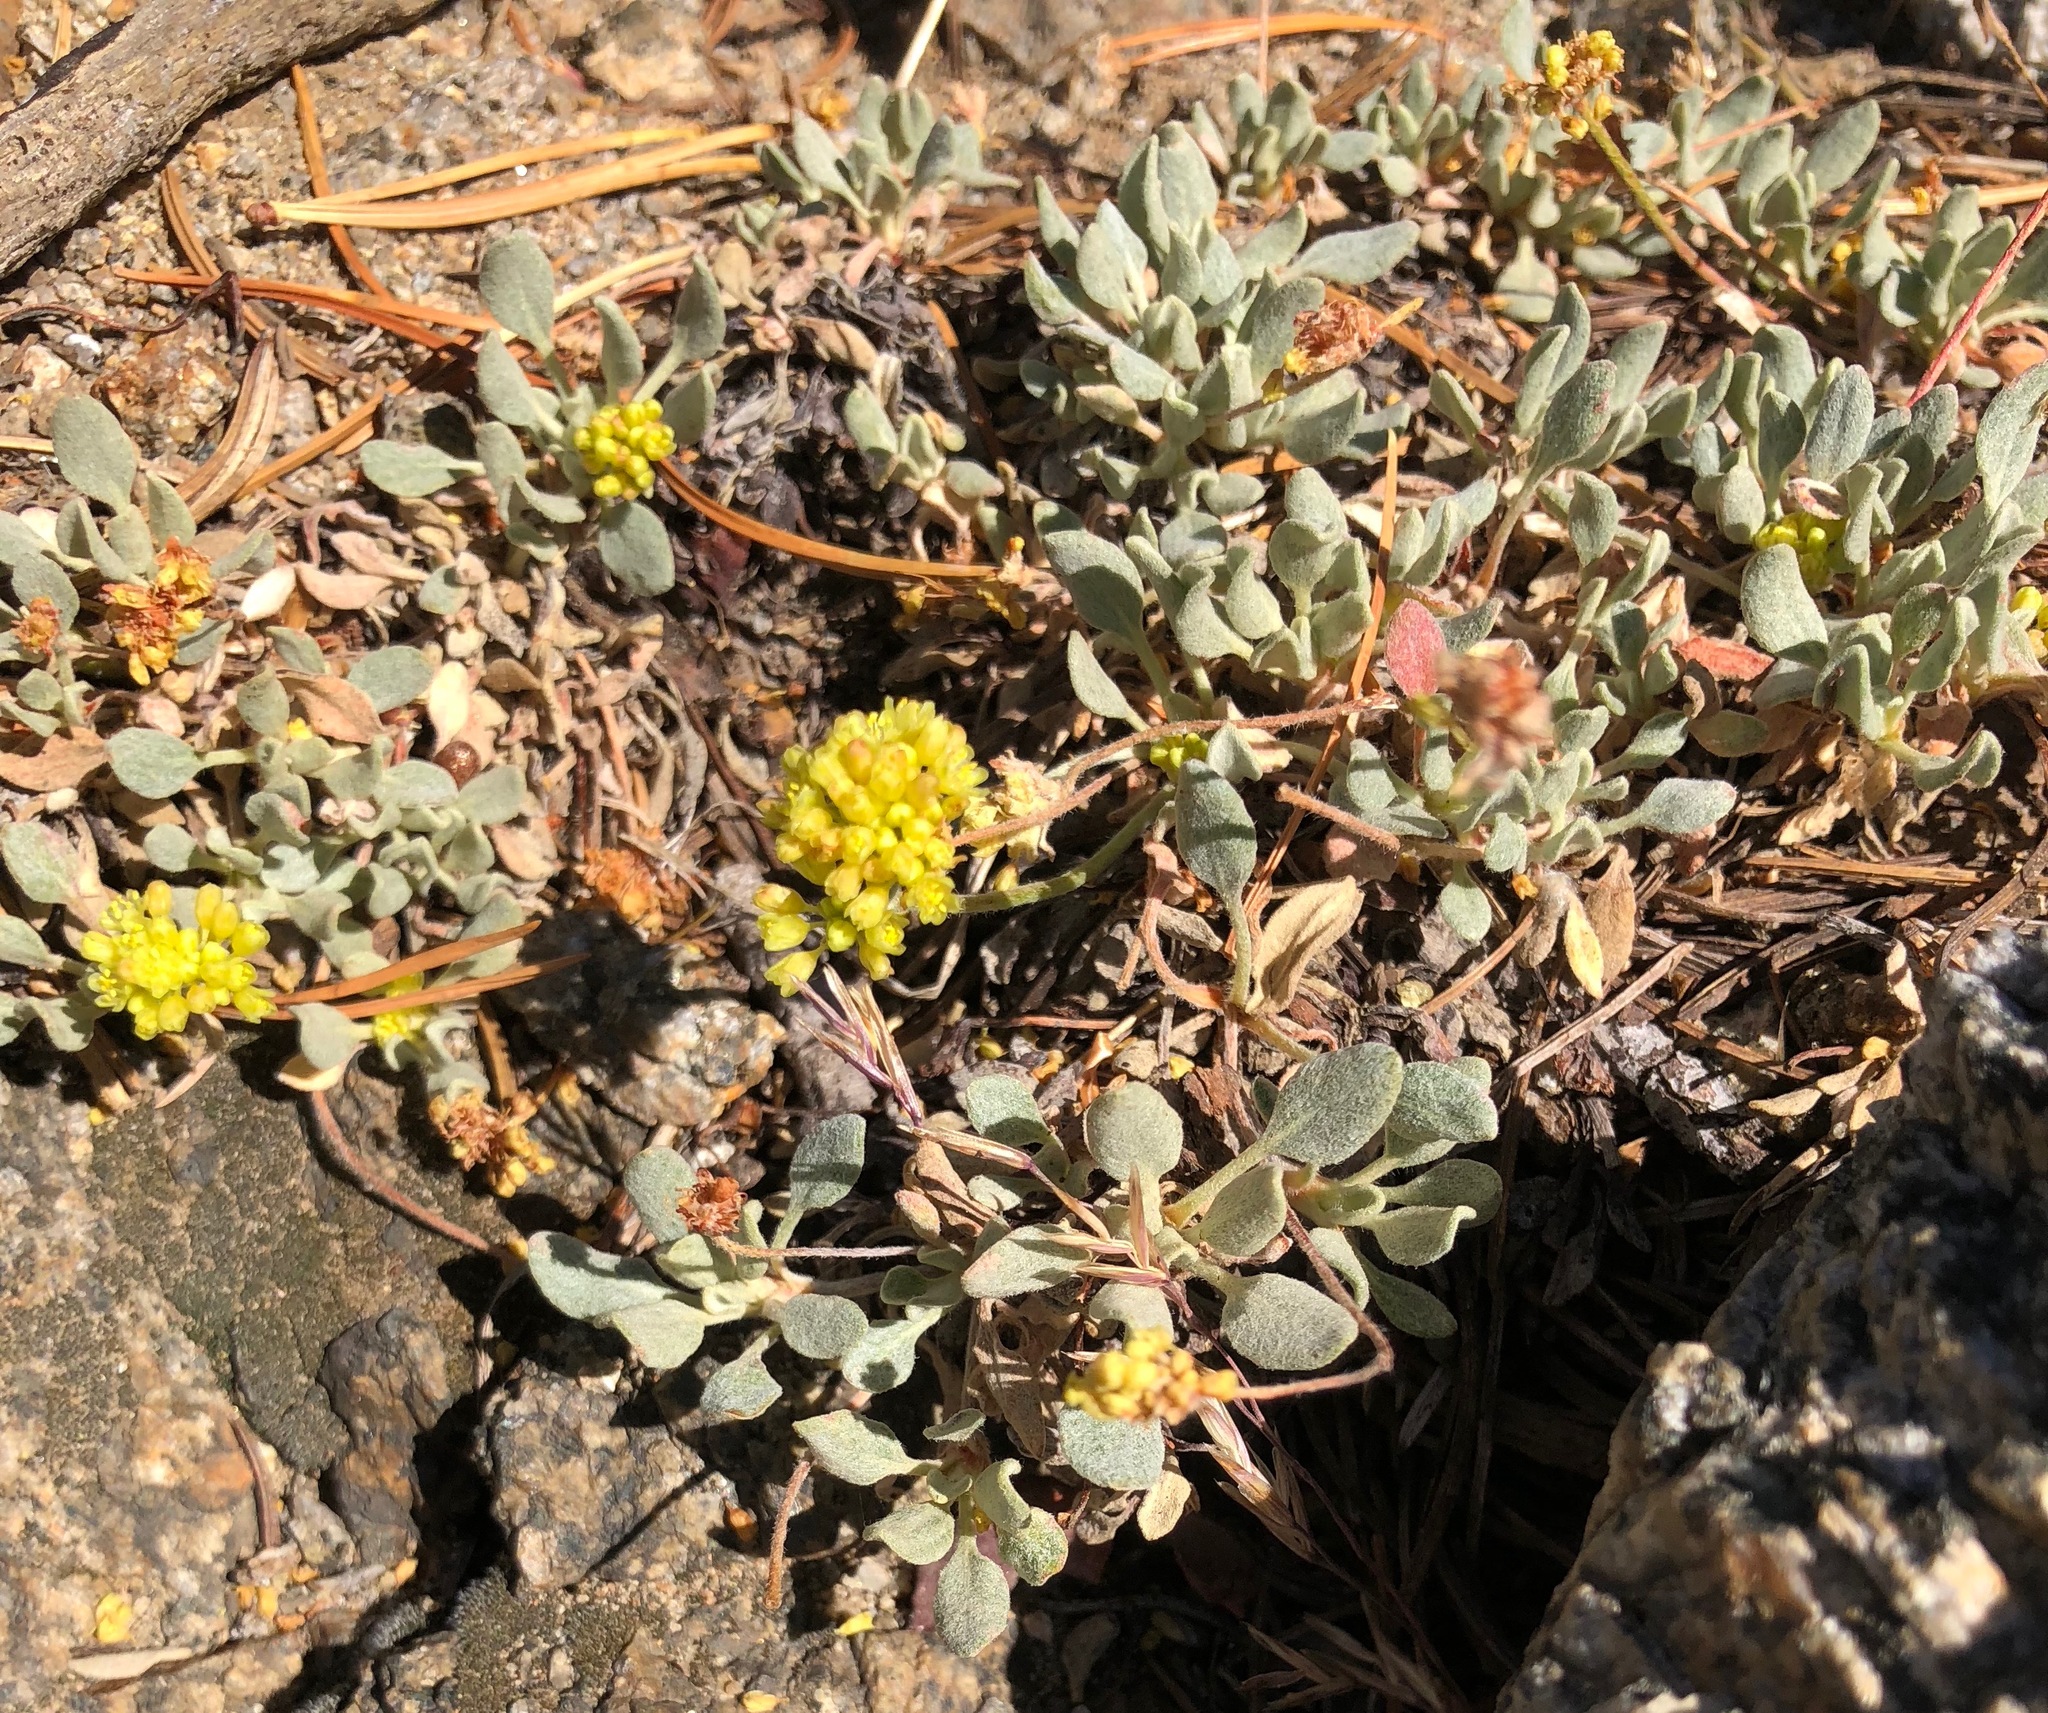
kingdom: Plantae
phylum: Tracheophyta
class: Magnoliopsida
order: Caryophyllales
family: Polygonaceae
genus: Eriogonum
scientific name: Eriogonum incanum
